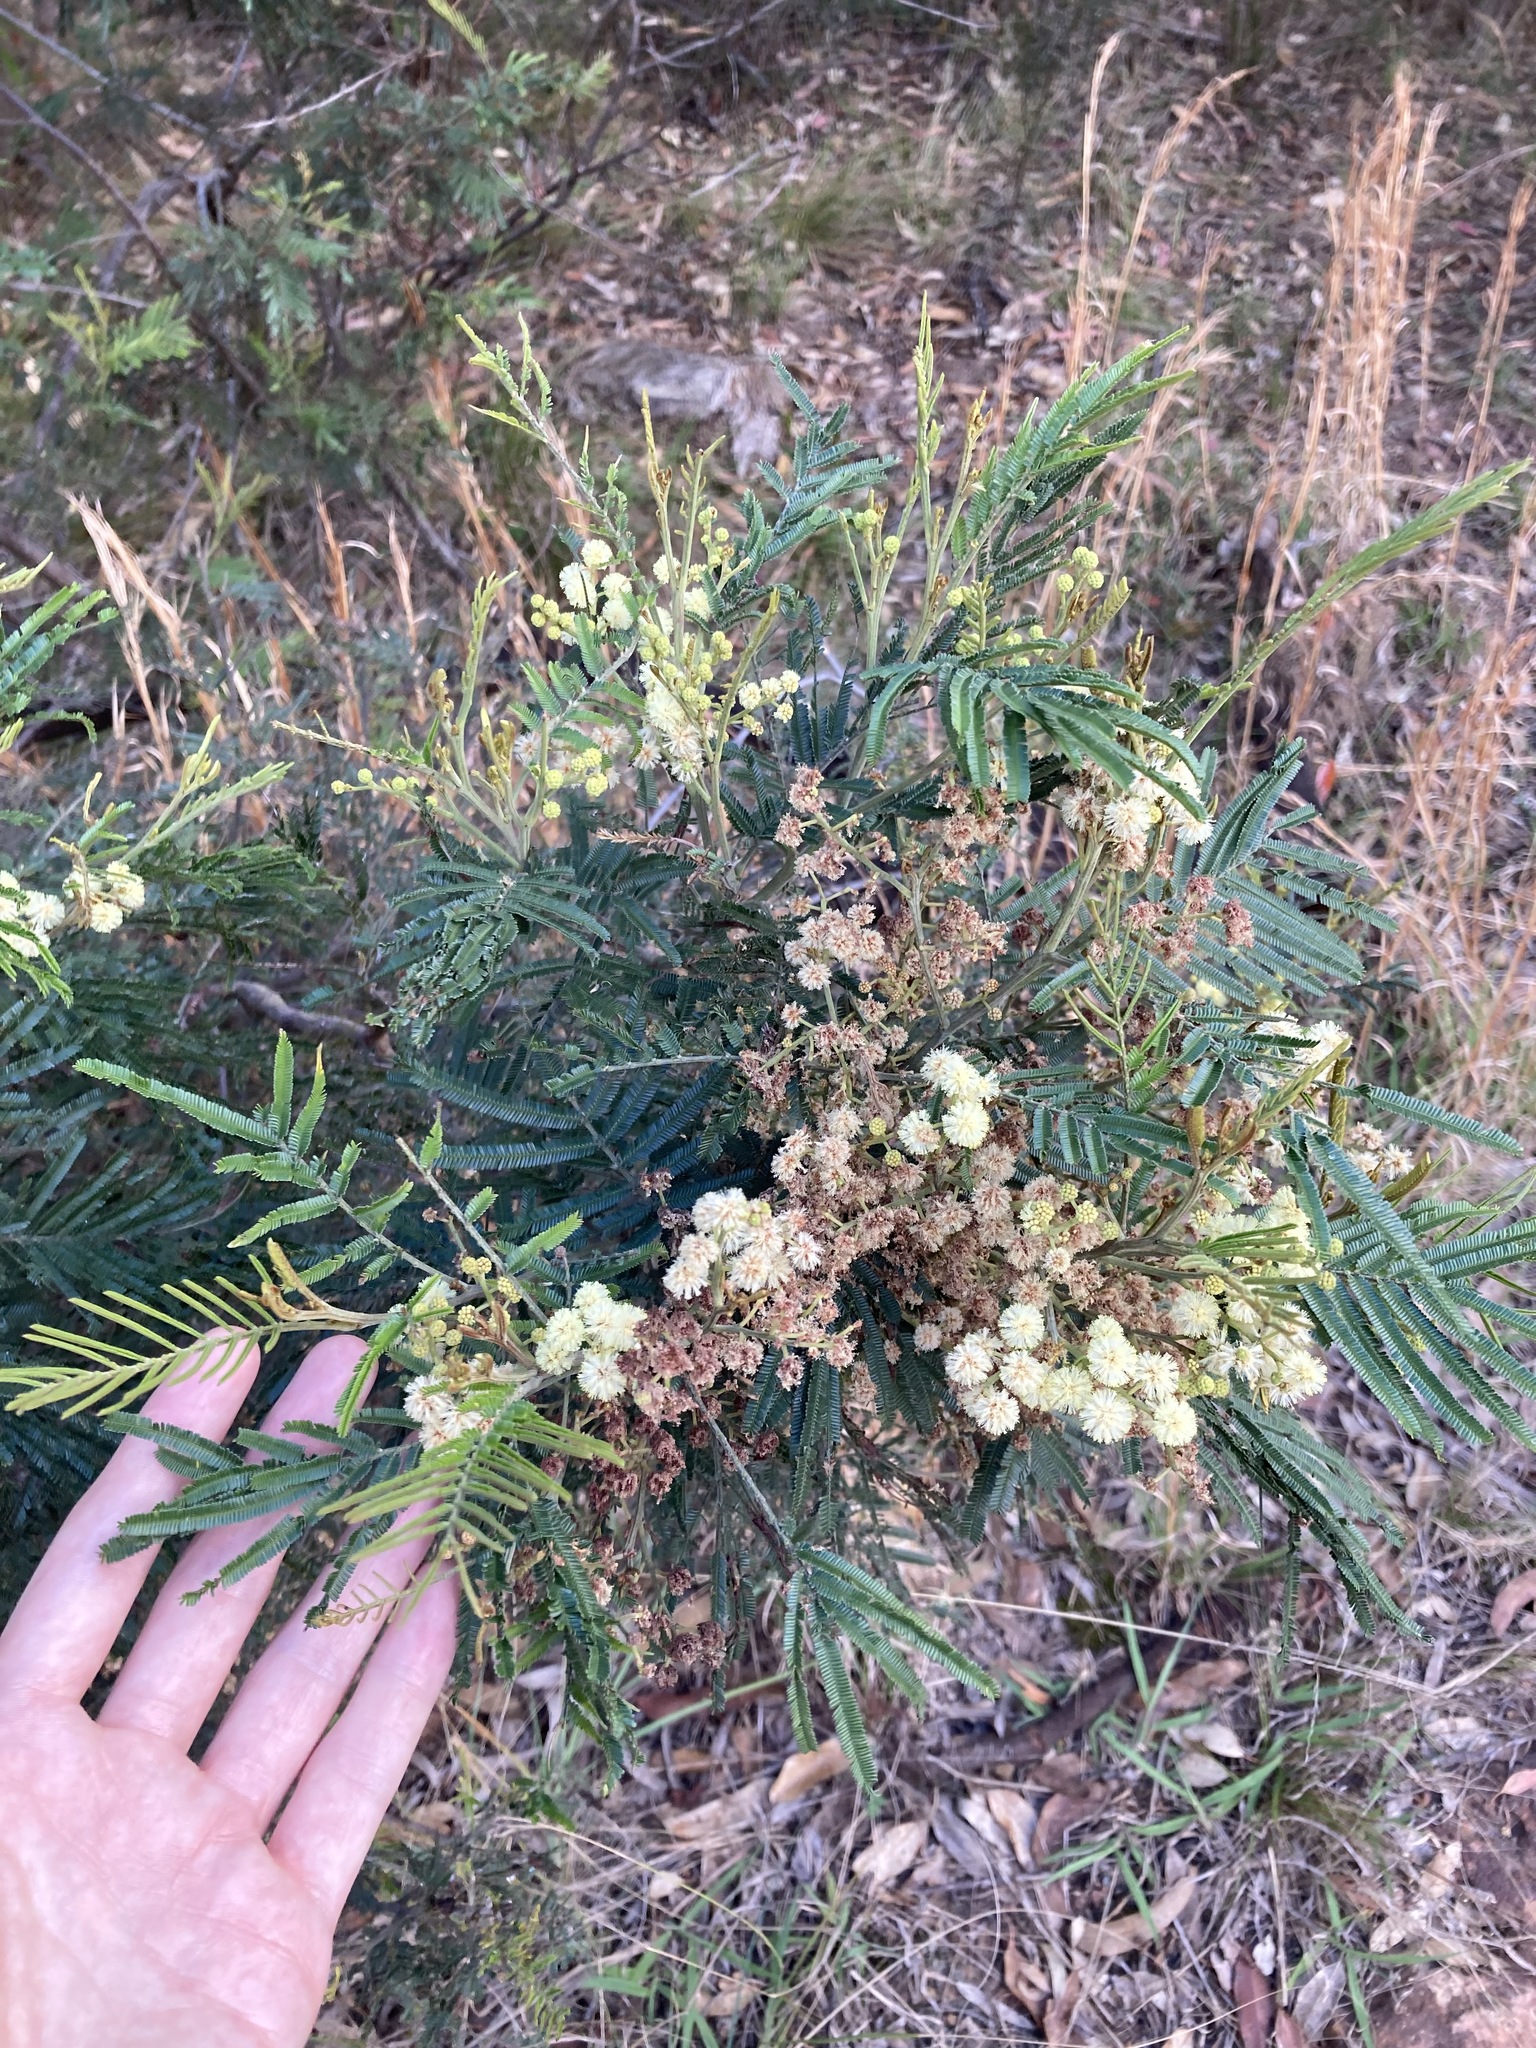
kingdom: Plantae
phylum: Tracheophyta
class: Magnoliopsida
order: Fabales
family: Fabaceae
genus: Acacia
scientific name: Acacia mearnsii
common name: Black wattle
